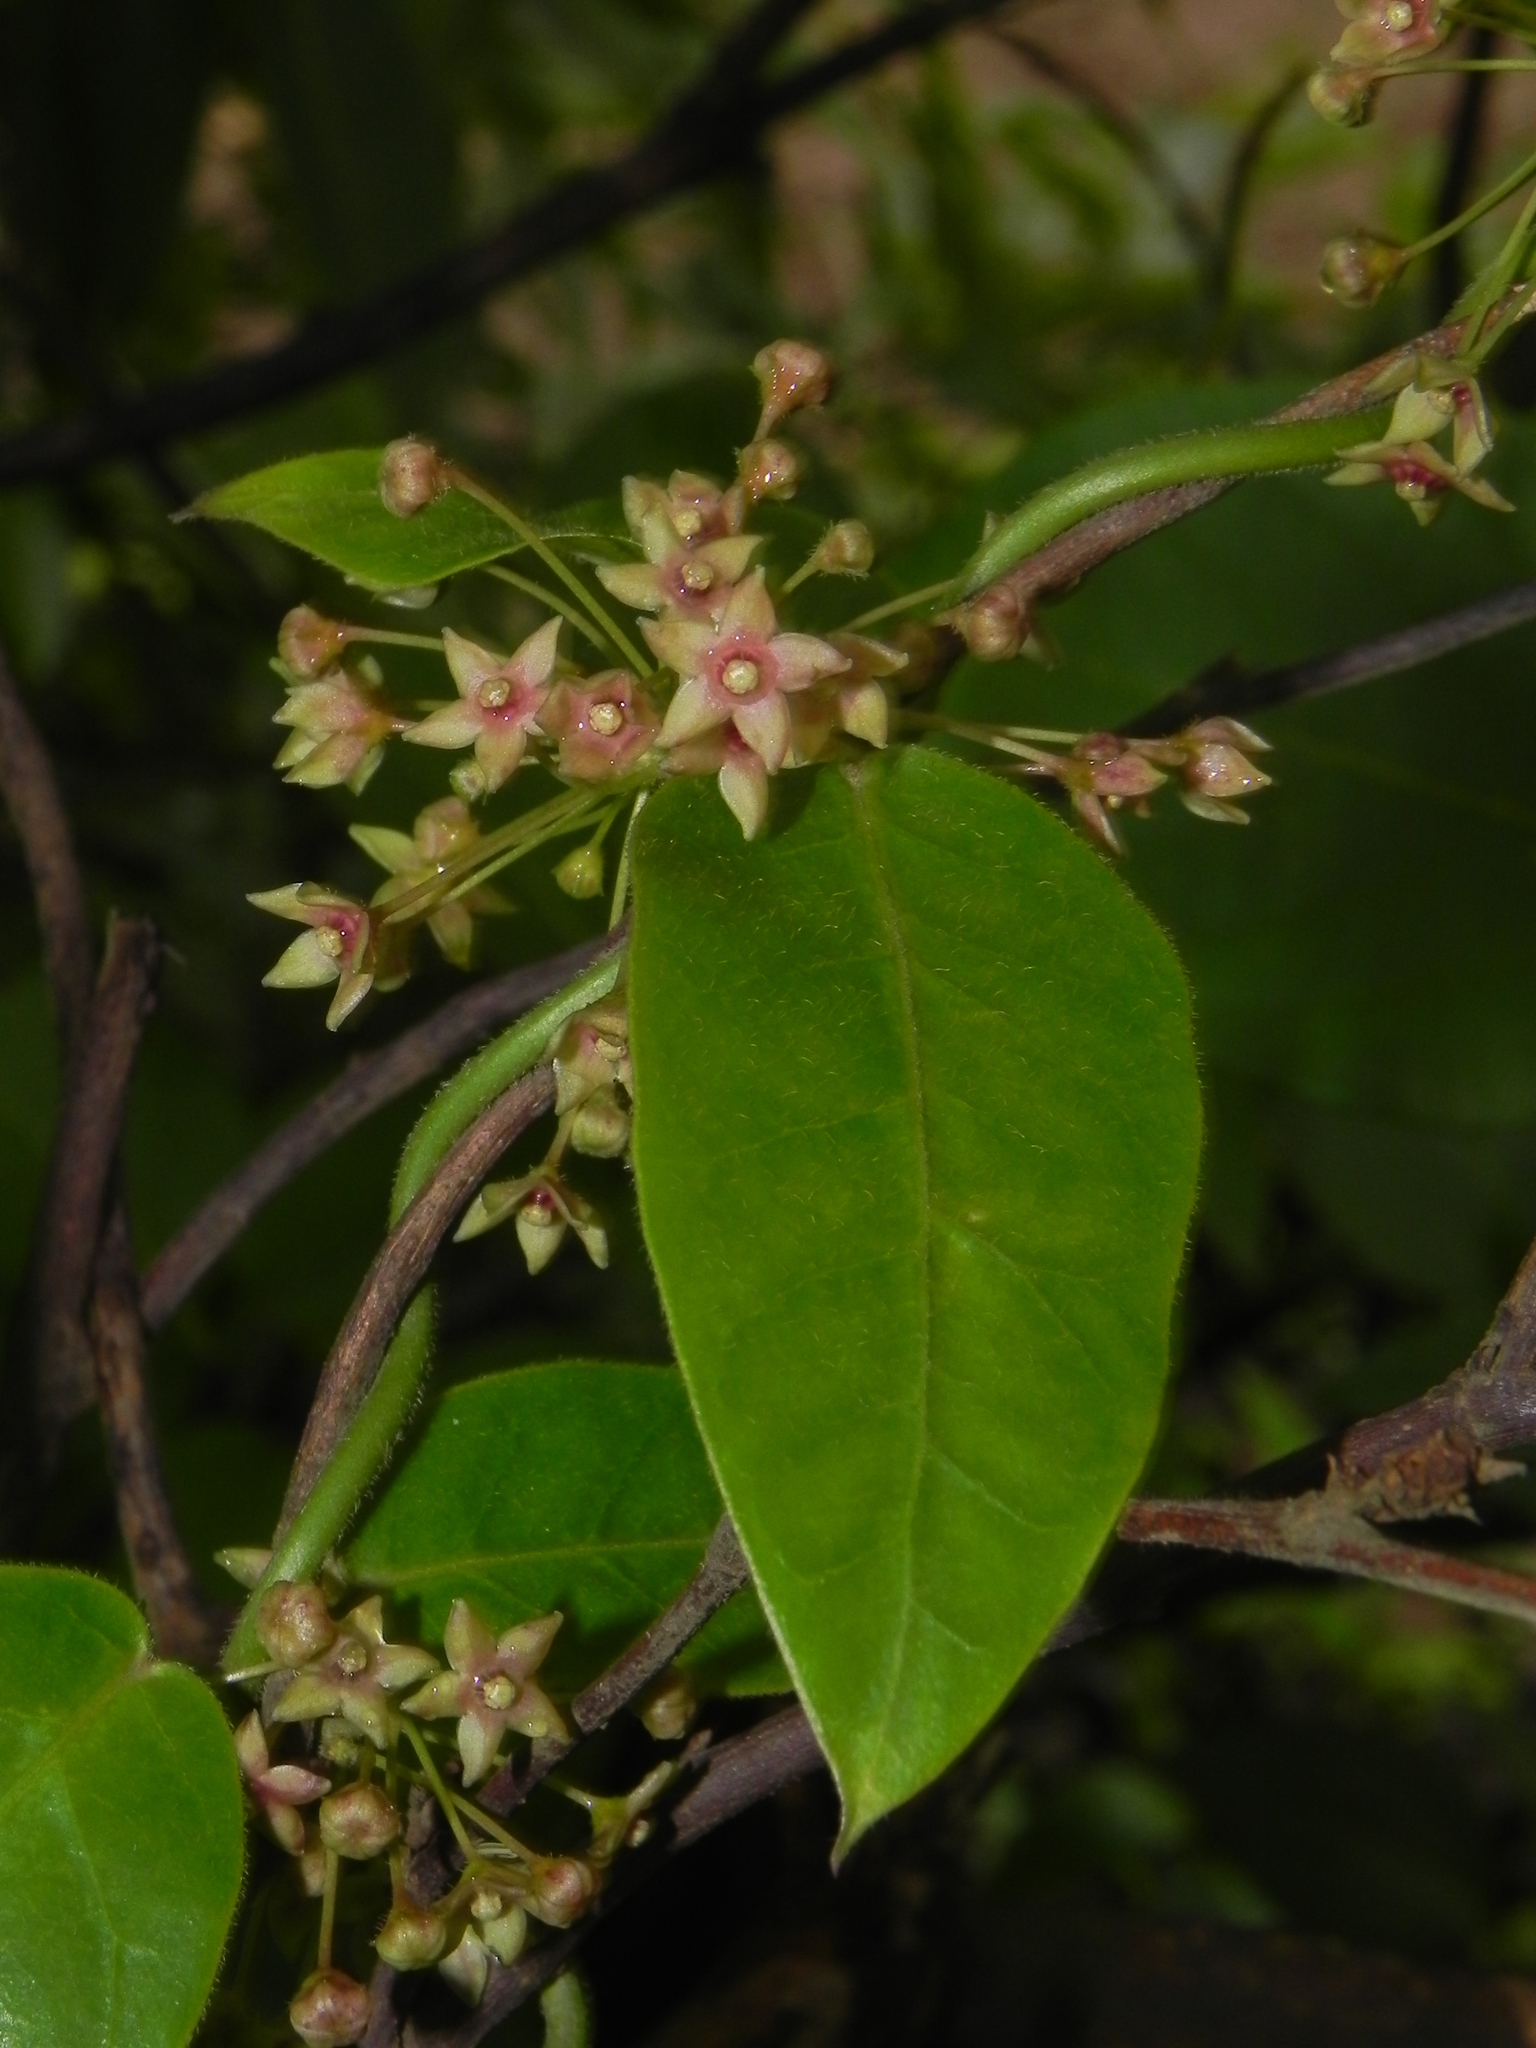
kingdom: Plantae
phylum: Tracheophyta
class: Magnoliopsida
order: Gentianales
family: Apocynaceae
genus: Vincetoxicum
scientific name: Vincetoxicum dalzellii
